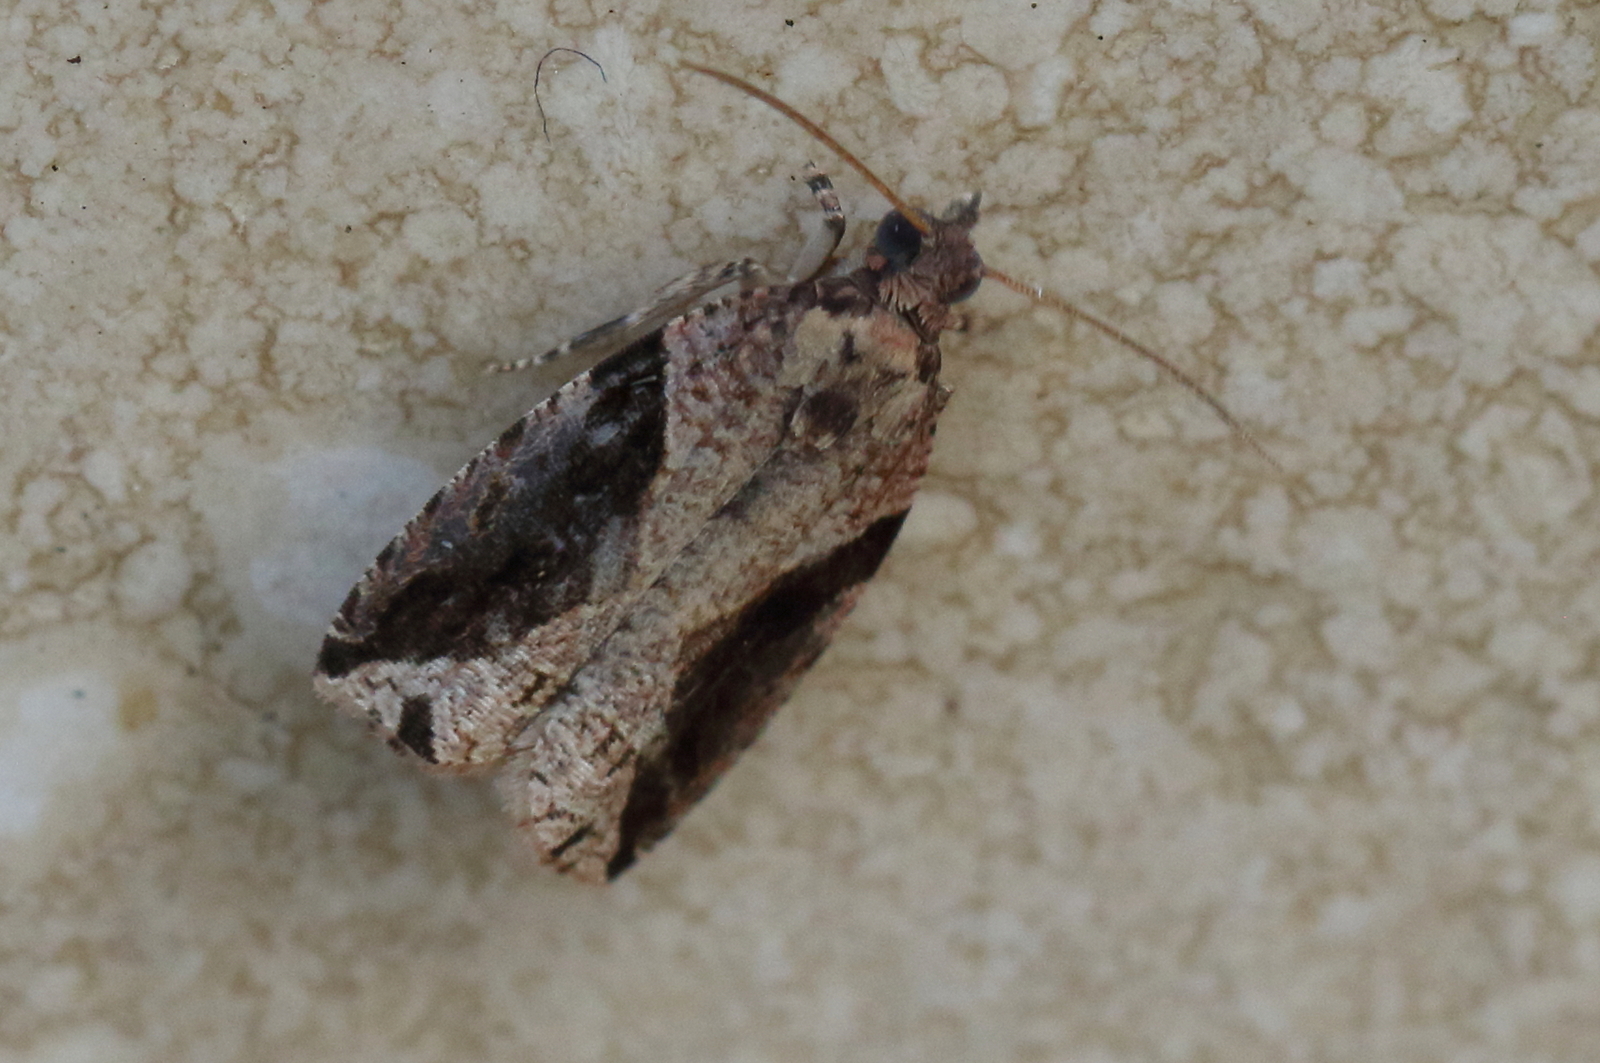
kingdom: Animalia
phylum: Arthropoda
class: Insecta
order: Lepidoptera
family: Tortricidae
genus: Statherotis
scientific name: Statherotis pendulata
